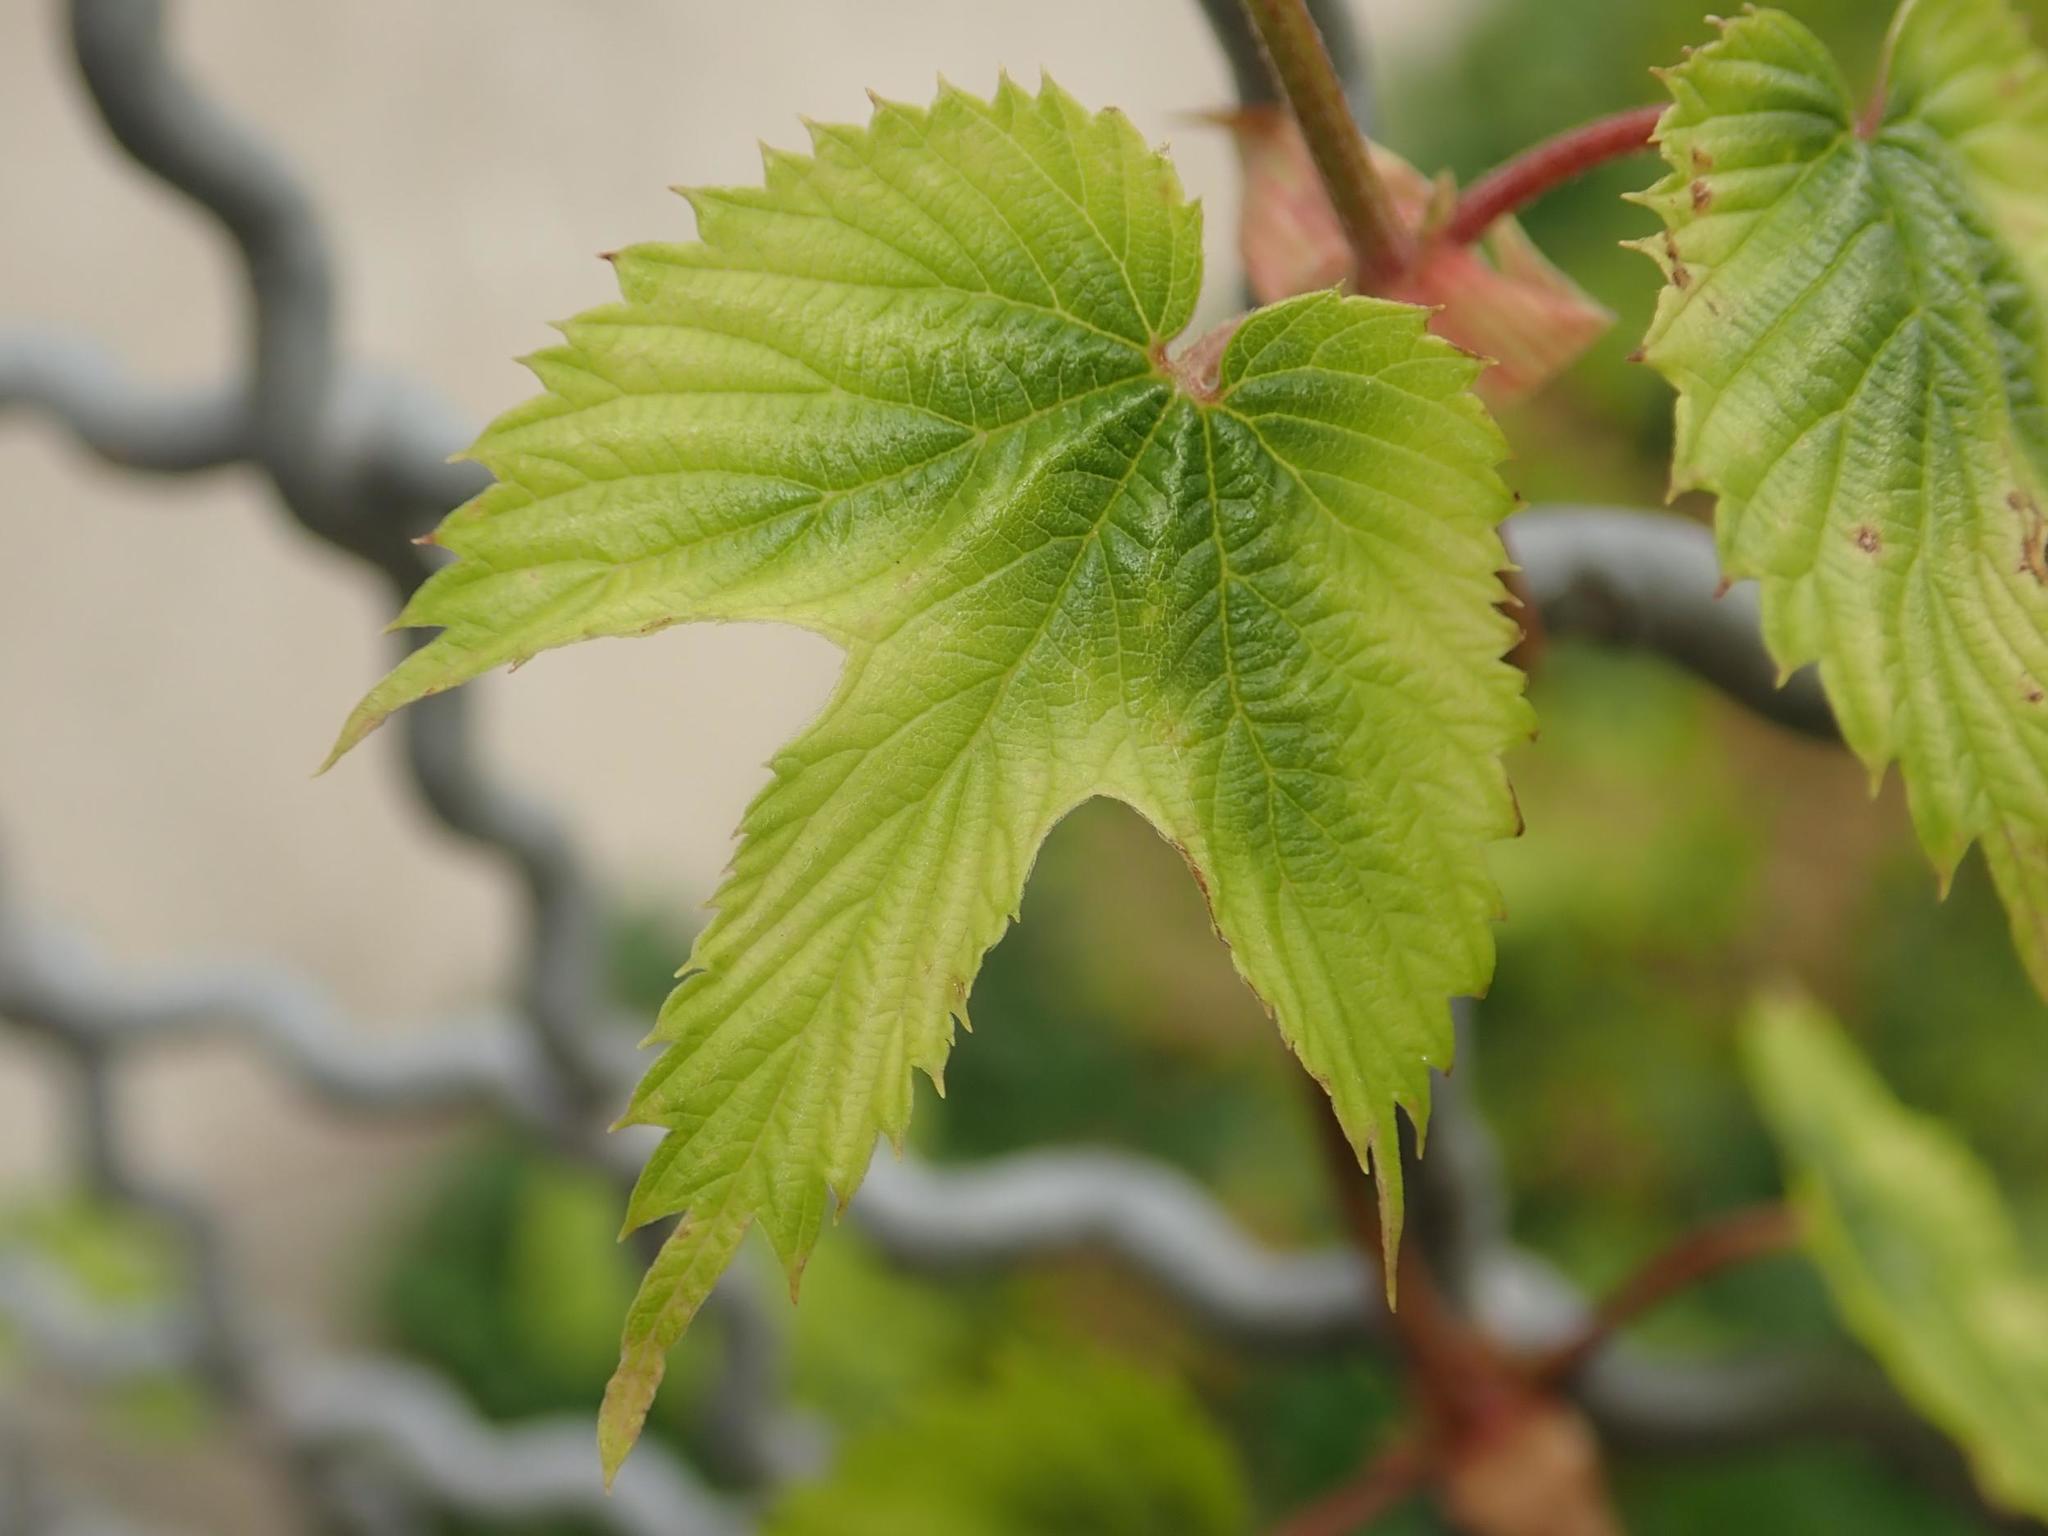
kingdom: Plantae
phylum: Tracheophyta
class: Magnoliopsida
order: Rosales
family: Cannabaceae
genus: Humulus
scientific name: Humulus lupulus
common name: Hop
